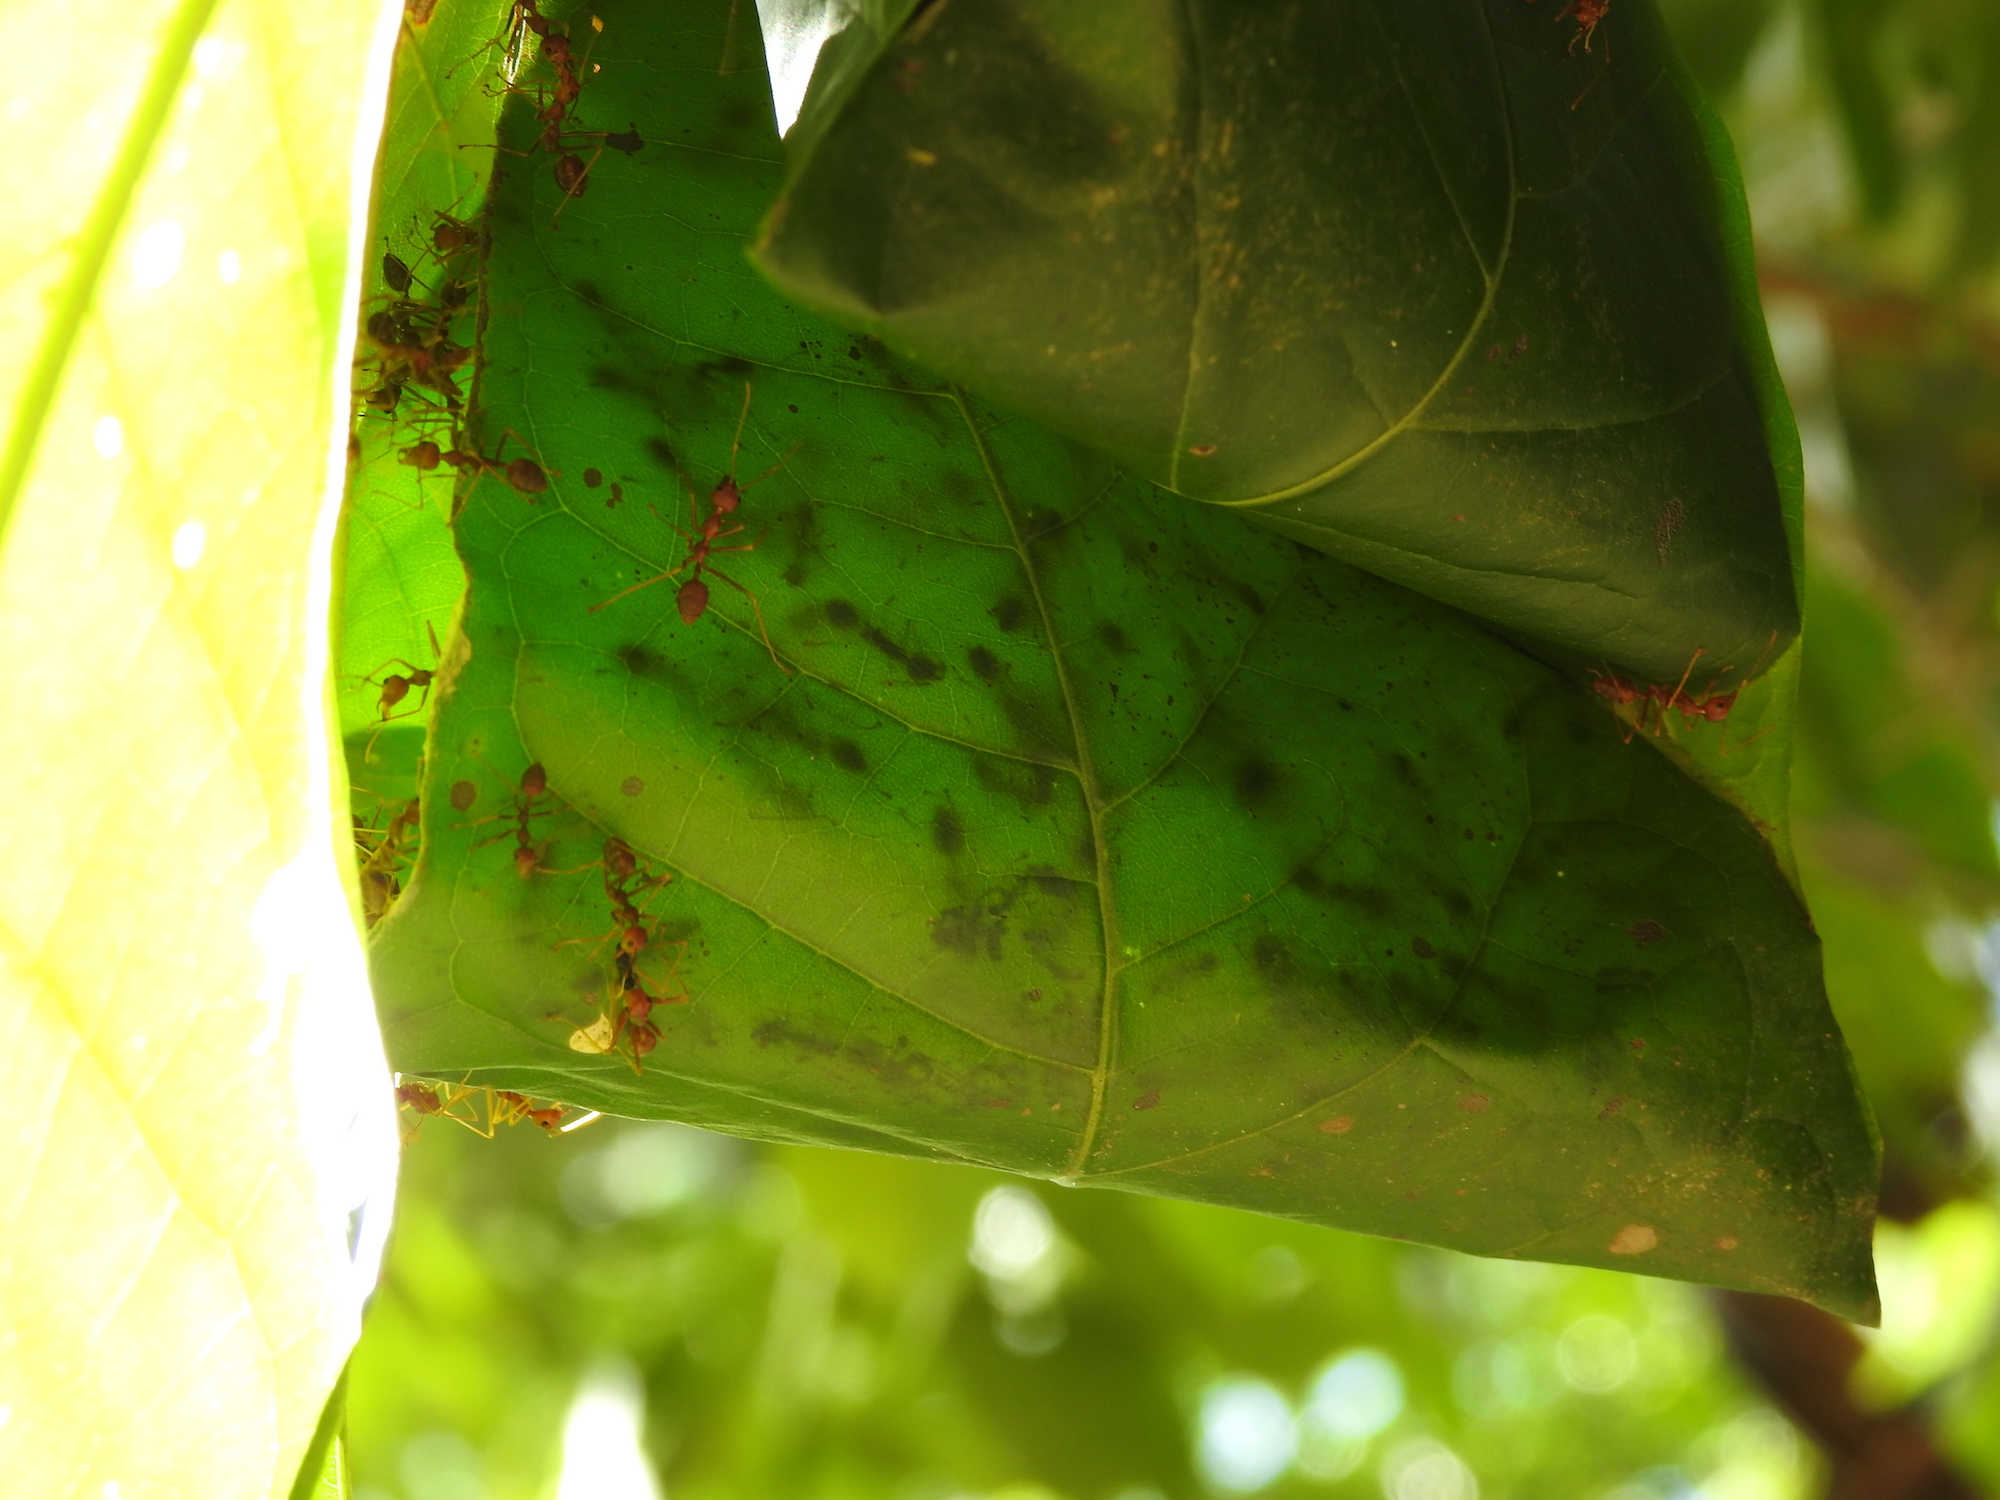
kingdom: Animalia
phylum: Arthropoda
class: Insecta
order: Hymenoptera
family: Formicidae
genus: Oecophylla
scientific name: Oecophylla smaragdina
